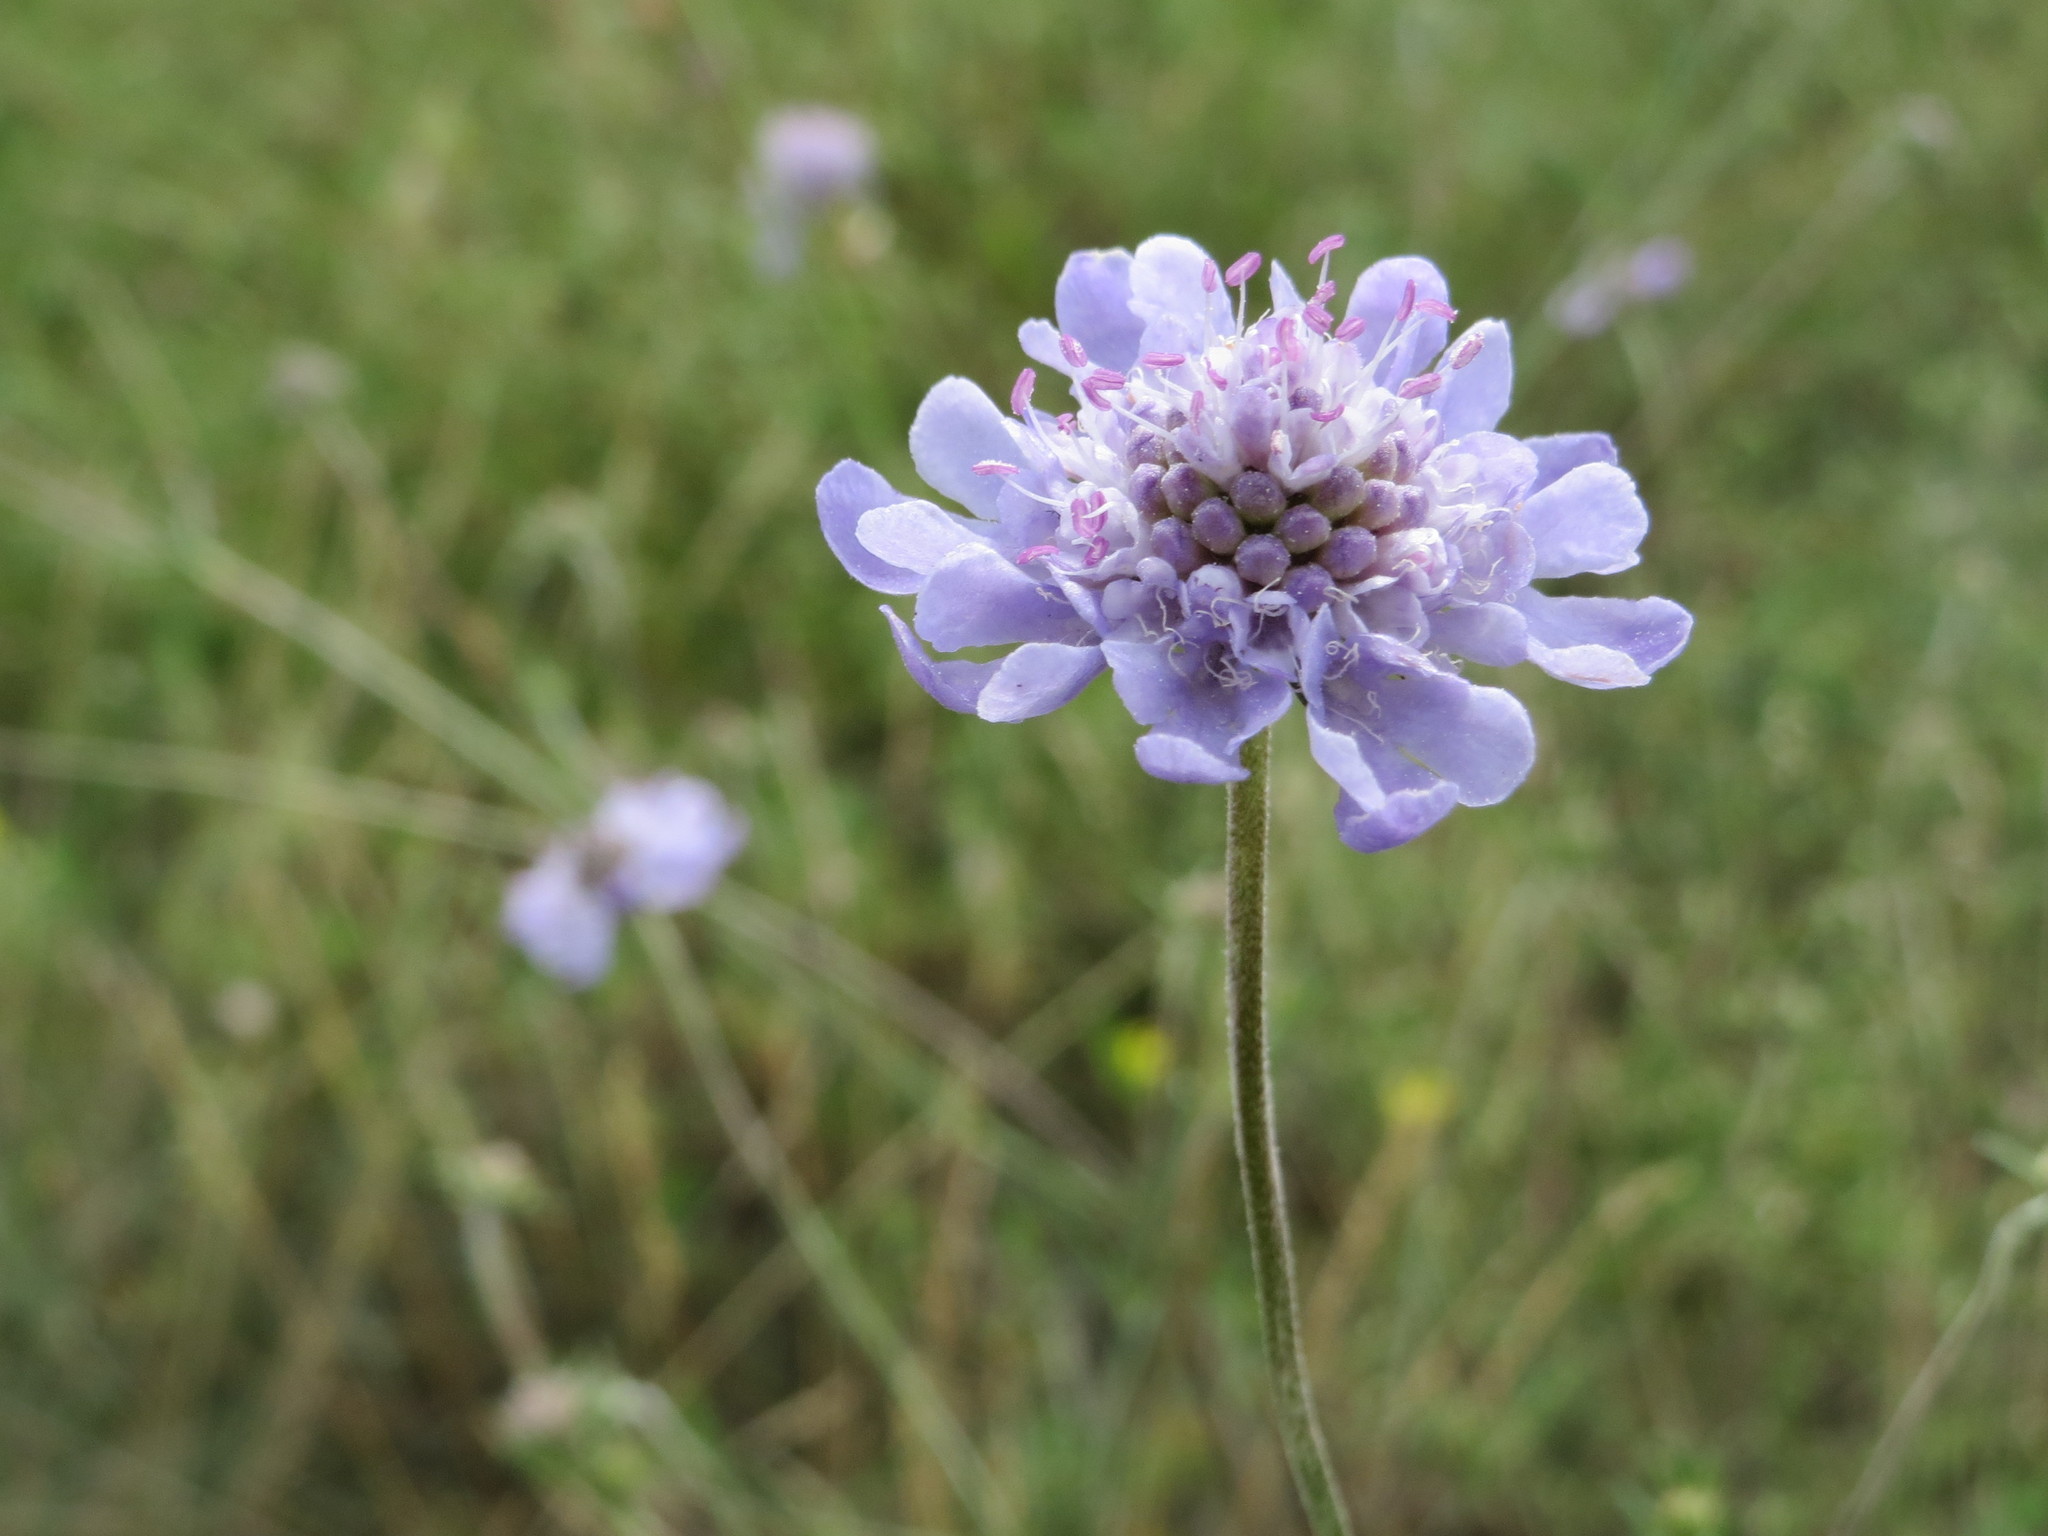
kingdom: Plantae
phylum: Tracheophyta
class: Magnoliopsida
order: Dipsacales
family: Caprifoliaceae
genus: Scabiosa
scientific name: Scabiosa canescens
